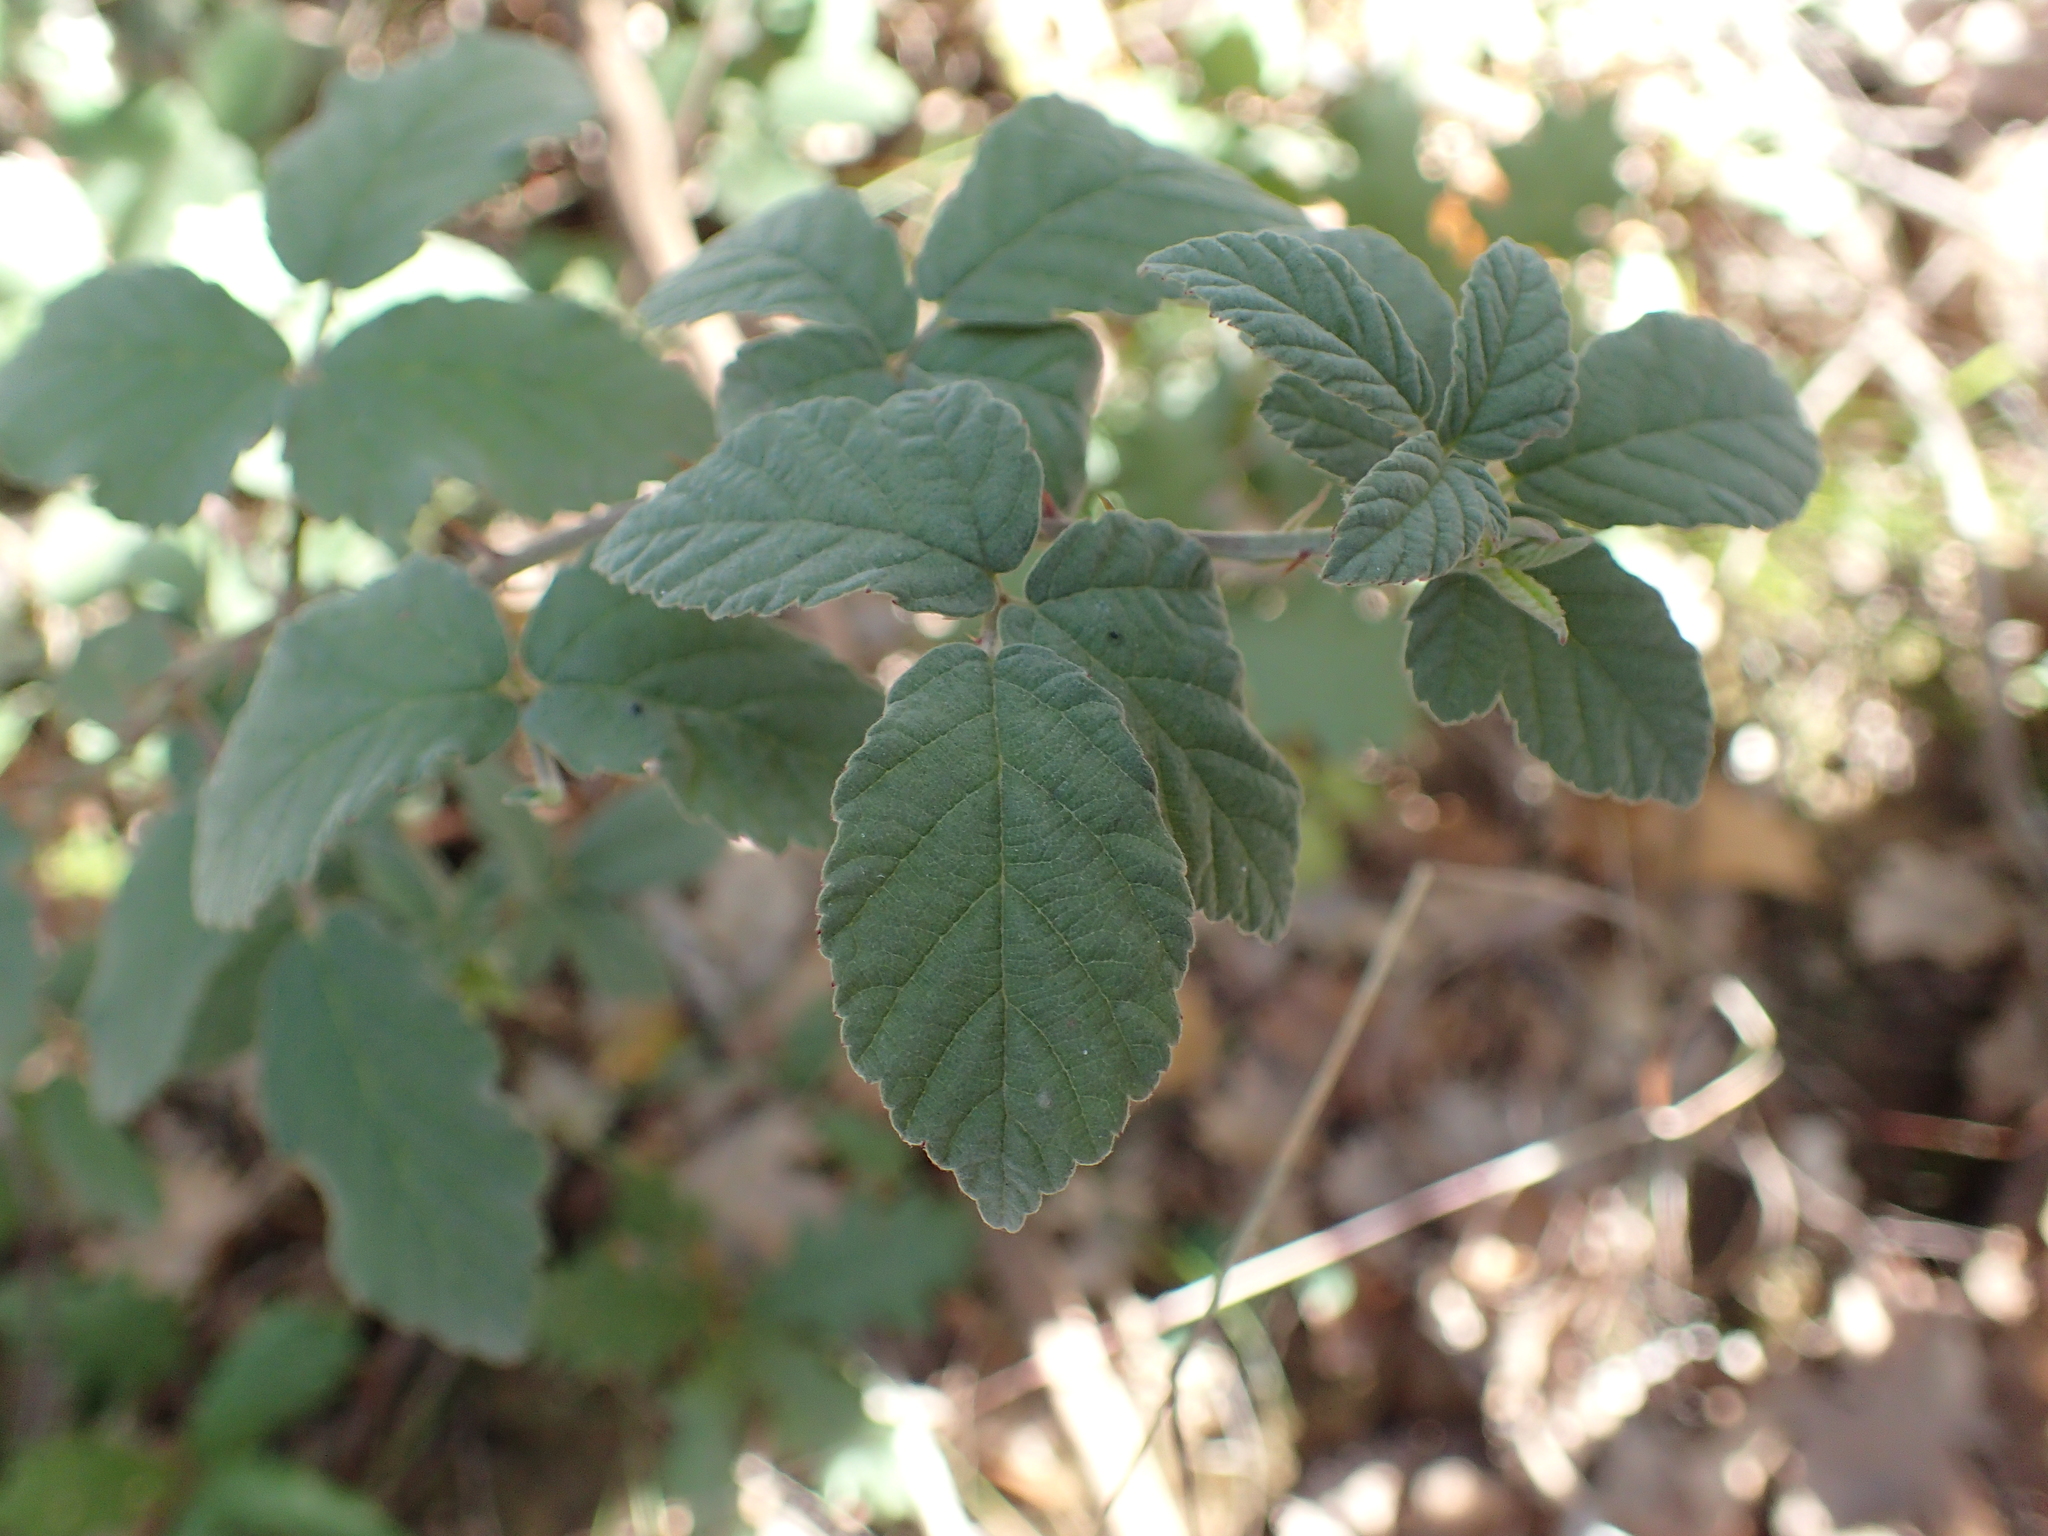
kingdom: Plantae
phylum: Tracheophyta
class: Magnoliopsida
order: Rosales
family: Rosaceae
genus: Rubus
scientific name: Rubus canescens
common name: Wooly blackberry
